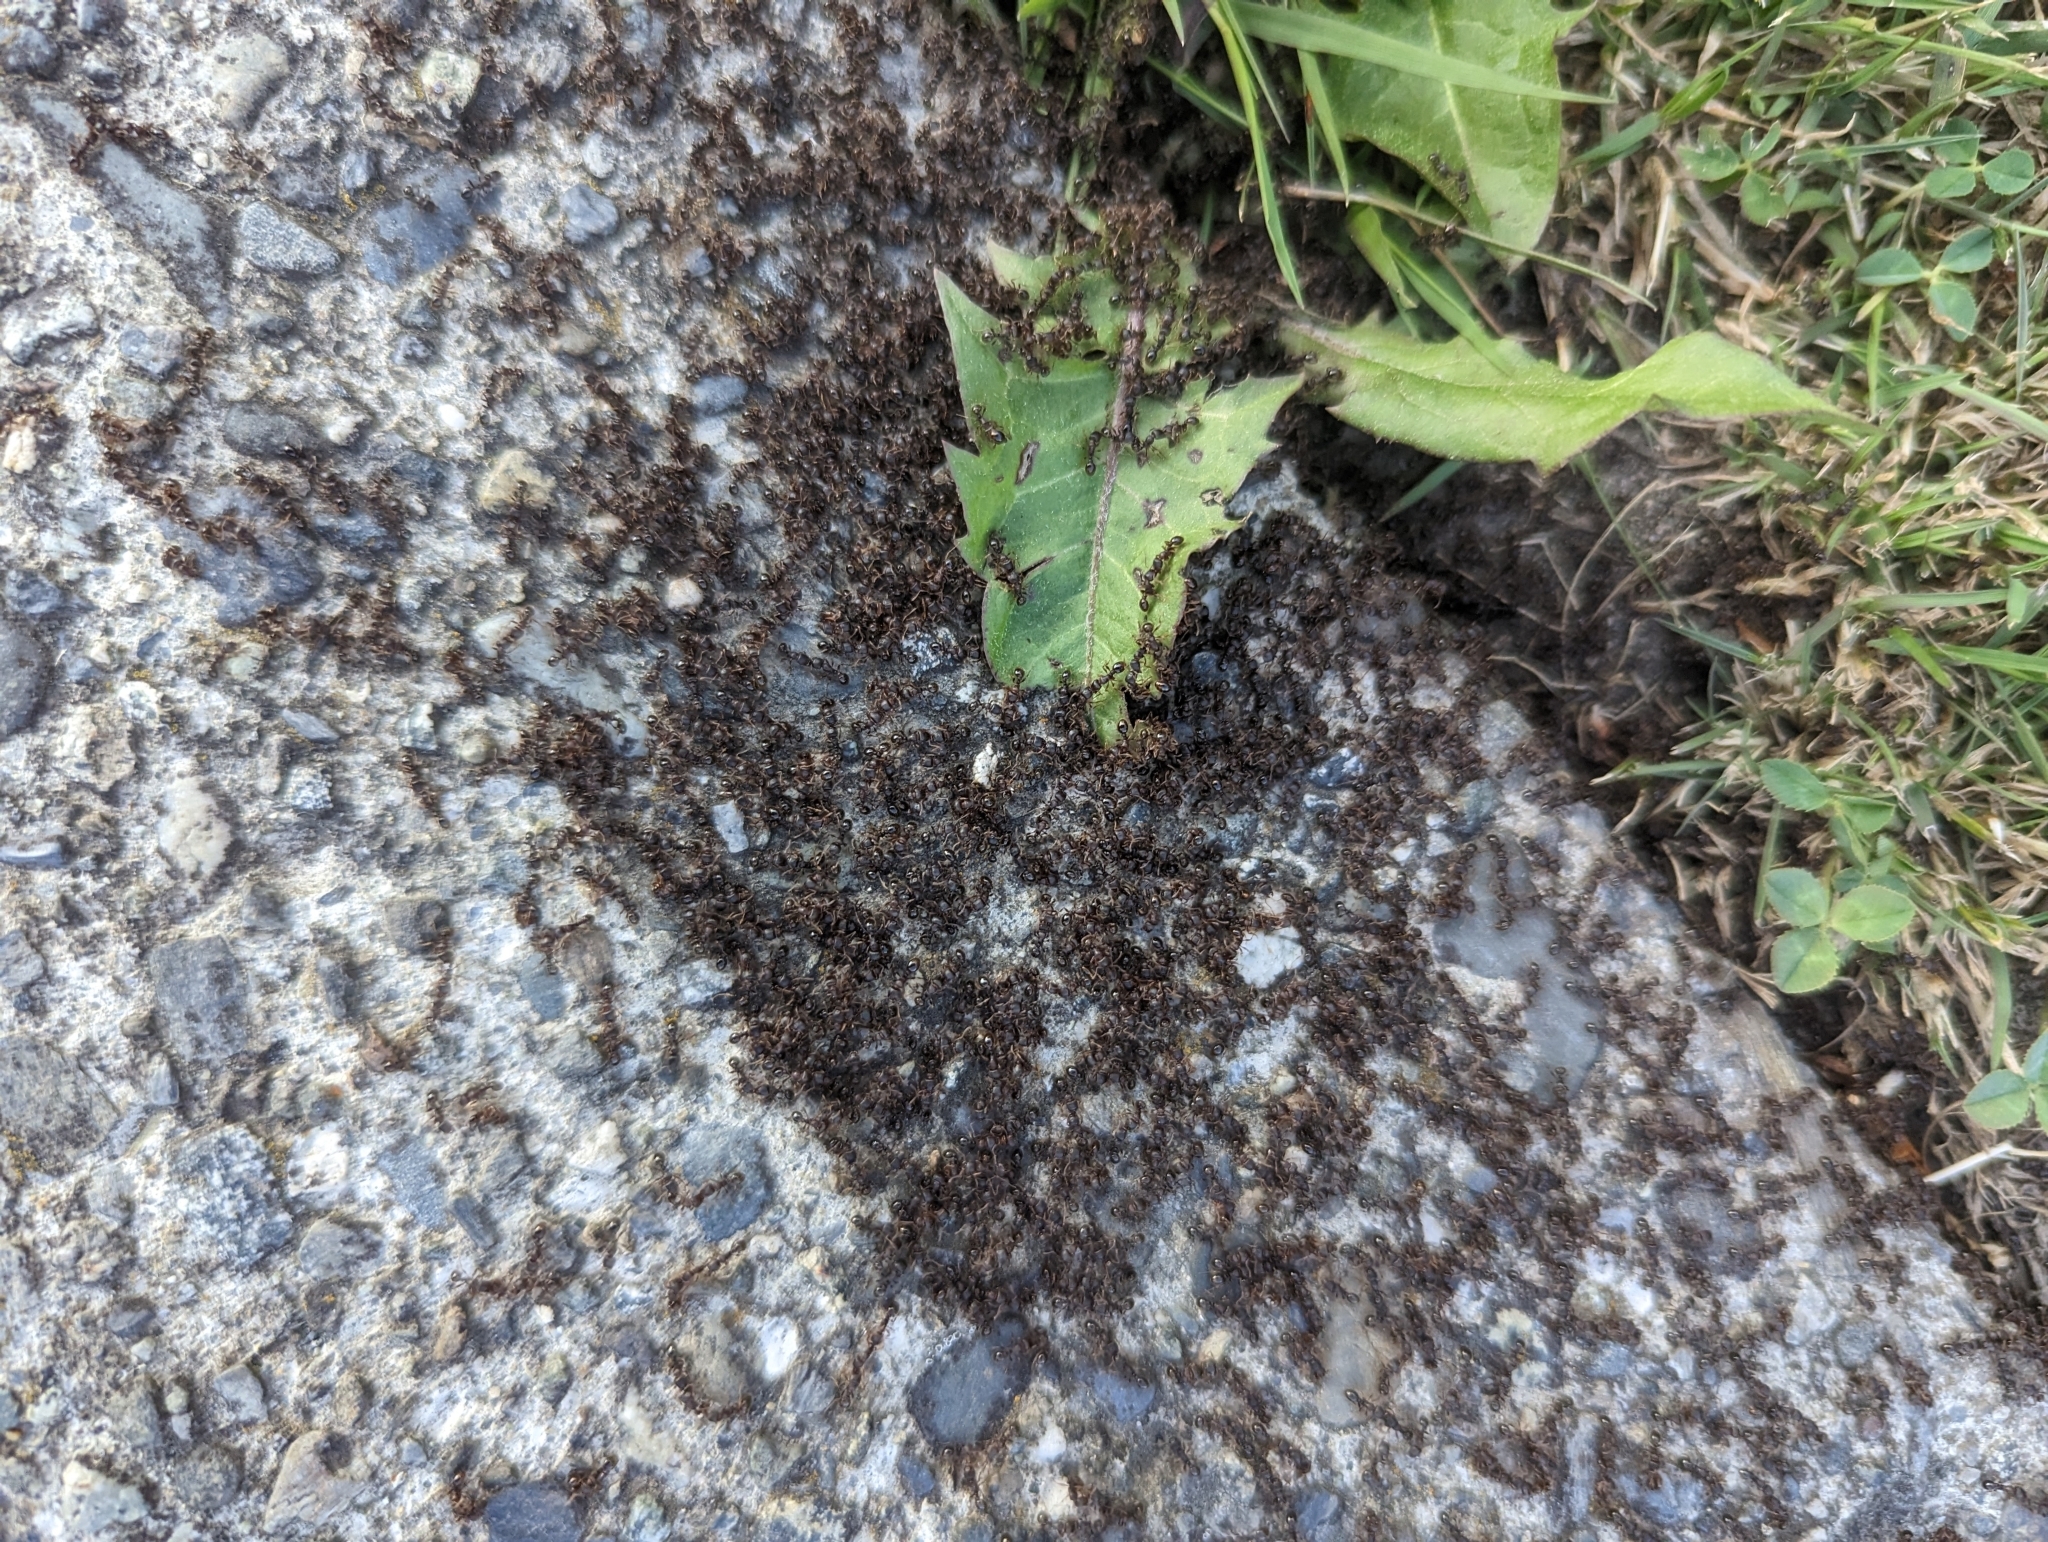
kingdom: Animalia
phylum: Arthropoda
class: Insecta
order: Hymenoptera
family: Formicidae
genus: Tetramorium
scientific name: Tetramorium immigrans
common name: Pavement ant
